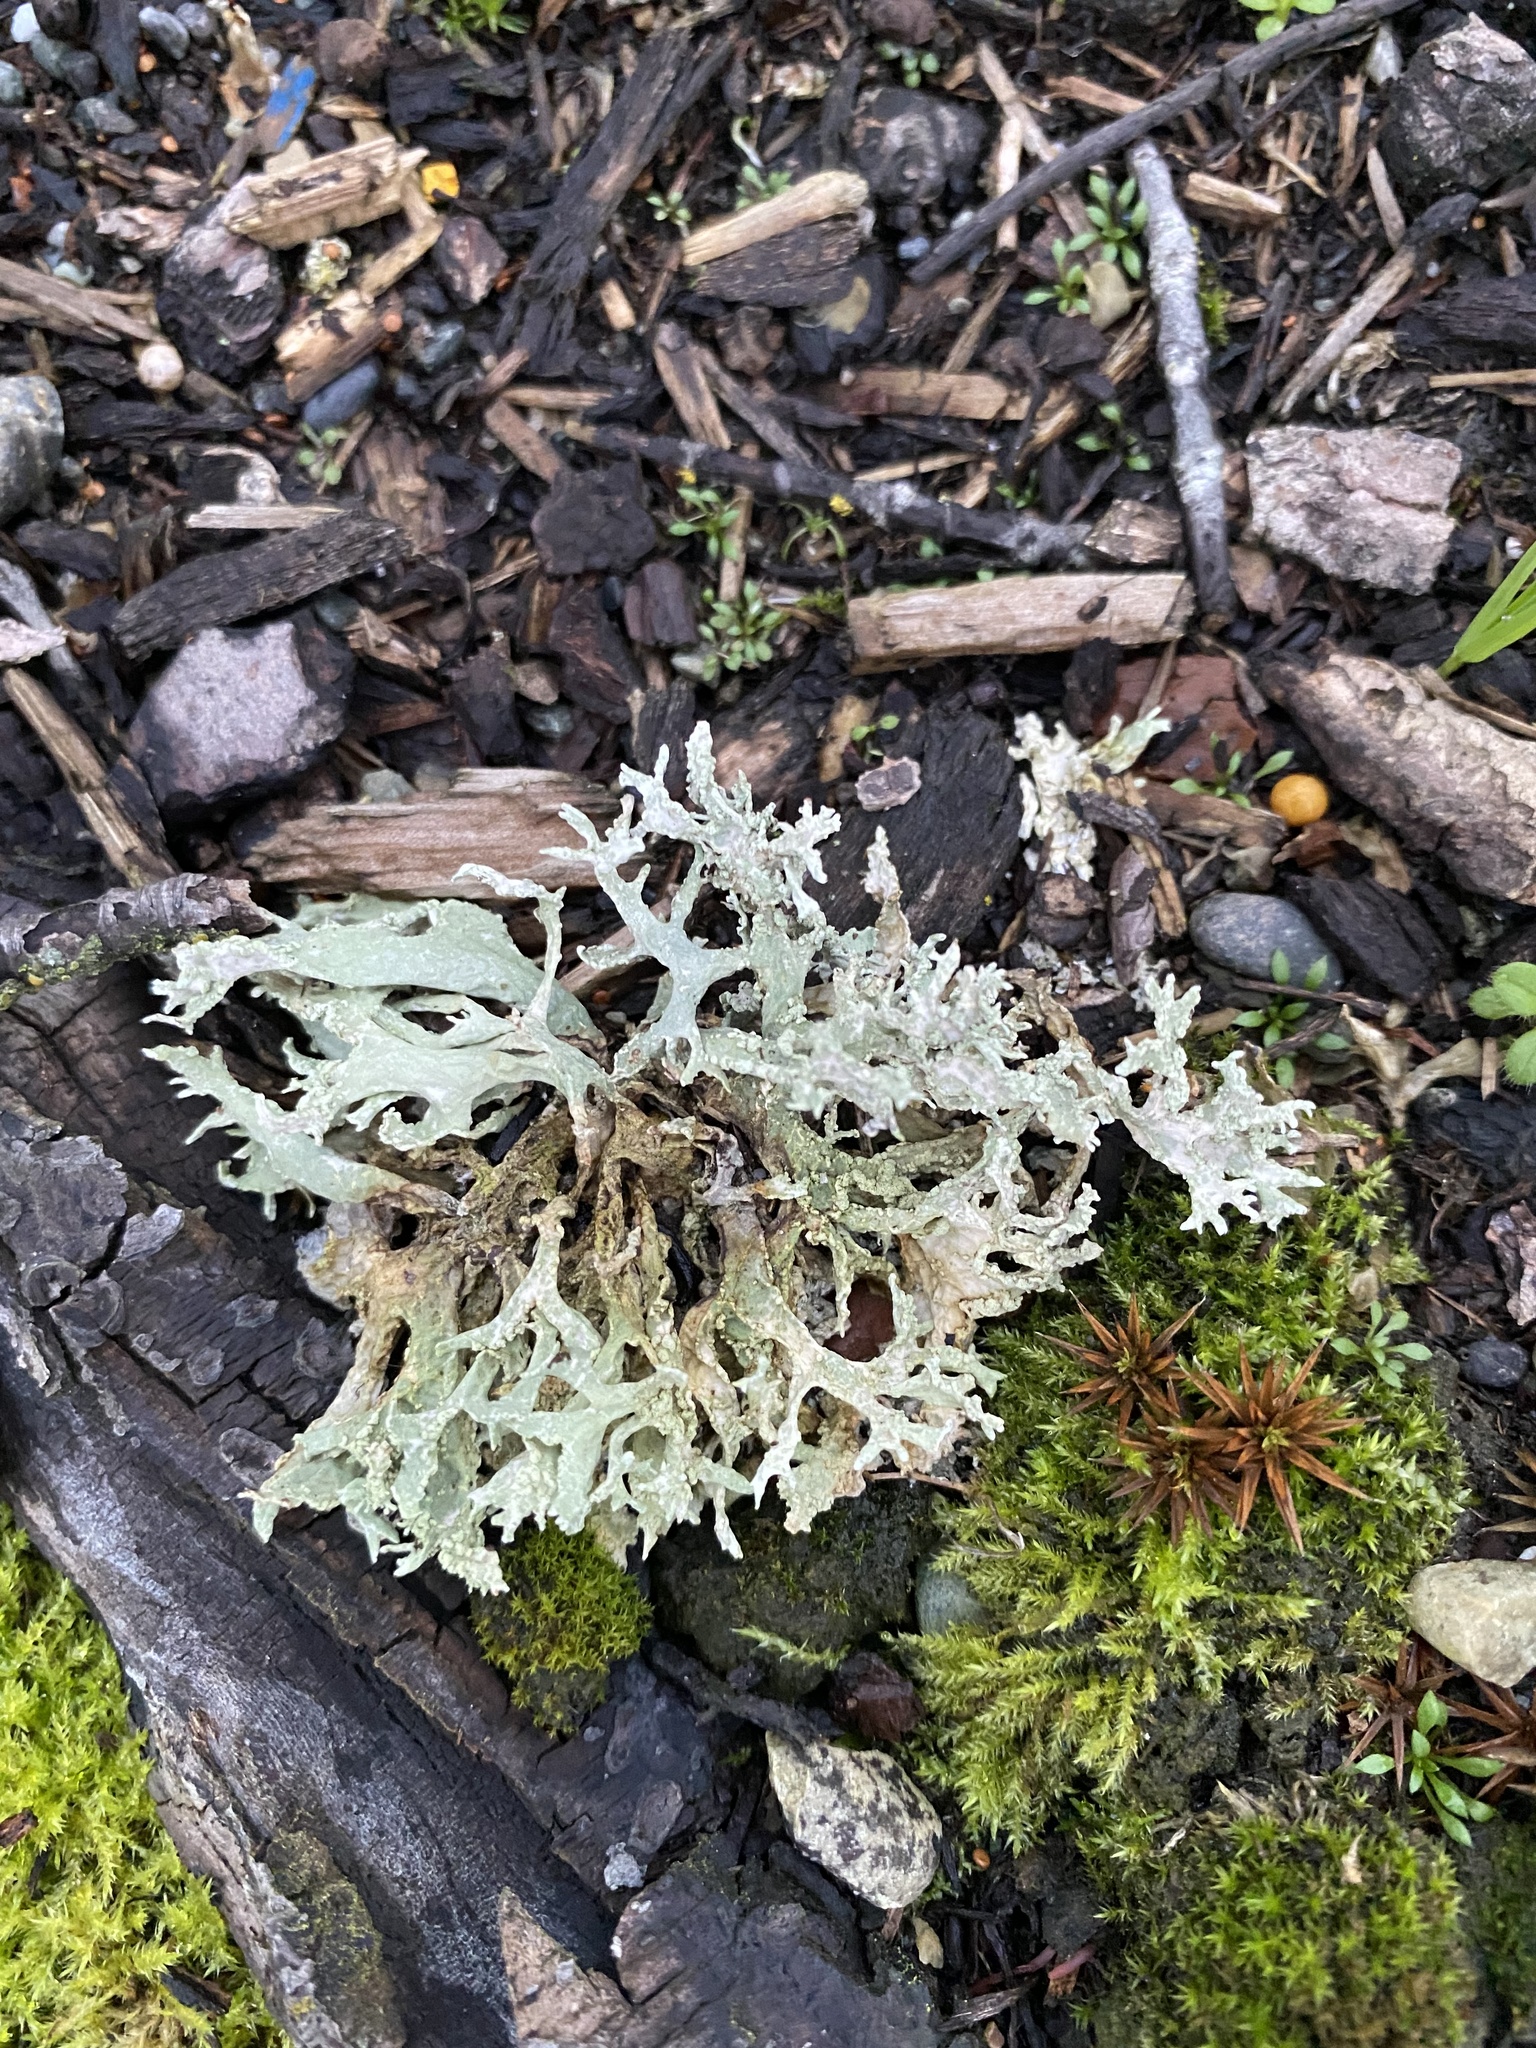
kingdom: Fungi
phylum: Ascomycota
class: Lecanoromycetes
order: Lecanorales
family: Parmeliaceae
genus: Evernia
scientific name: Evernia prunastri
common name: Oak moss
